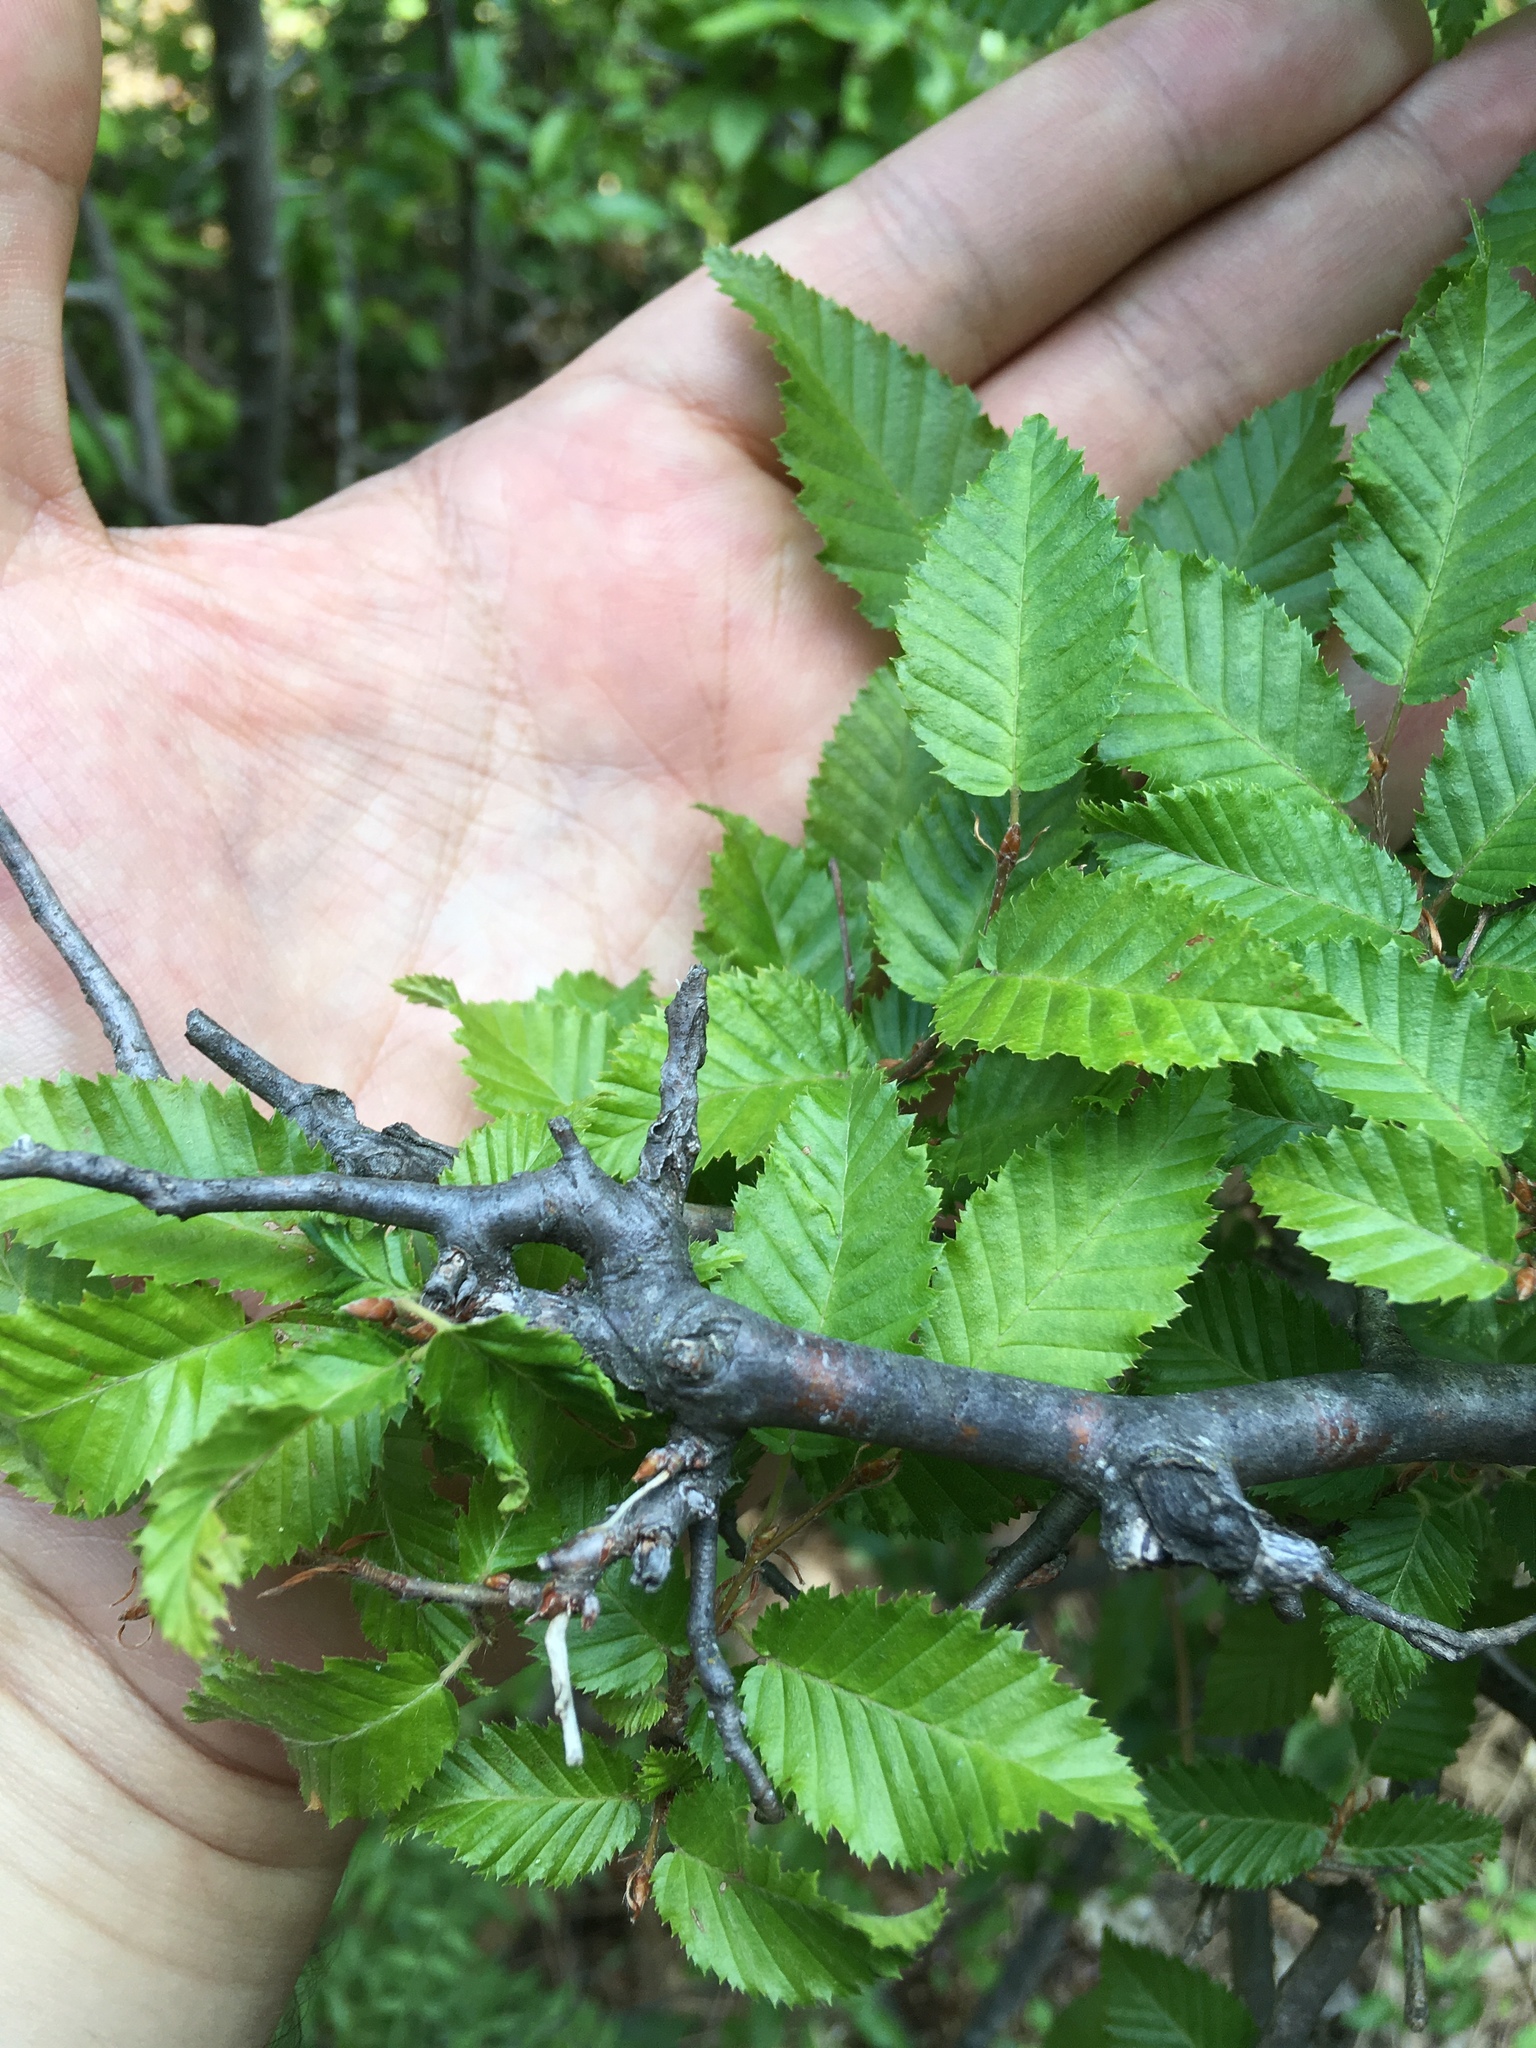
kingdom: Plantae
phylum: Tracheophyta
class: Magnoliopsida
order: Rosales
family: Ulmaceae
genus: Ulmus
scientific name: Ulmus minor
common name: Small-leaved elm
